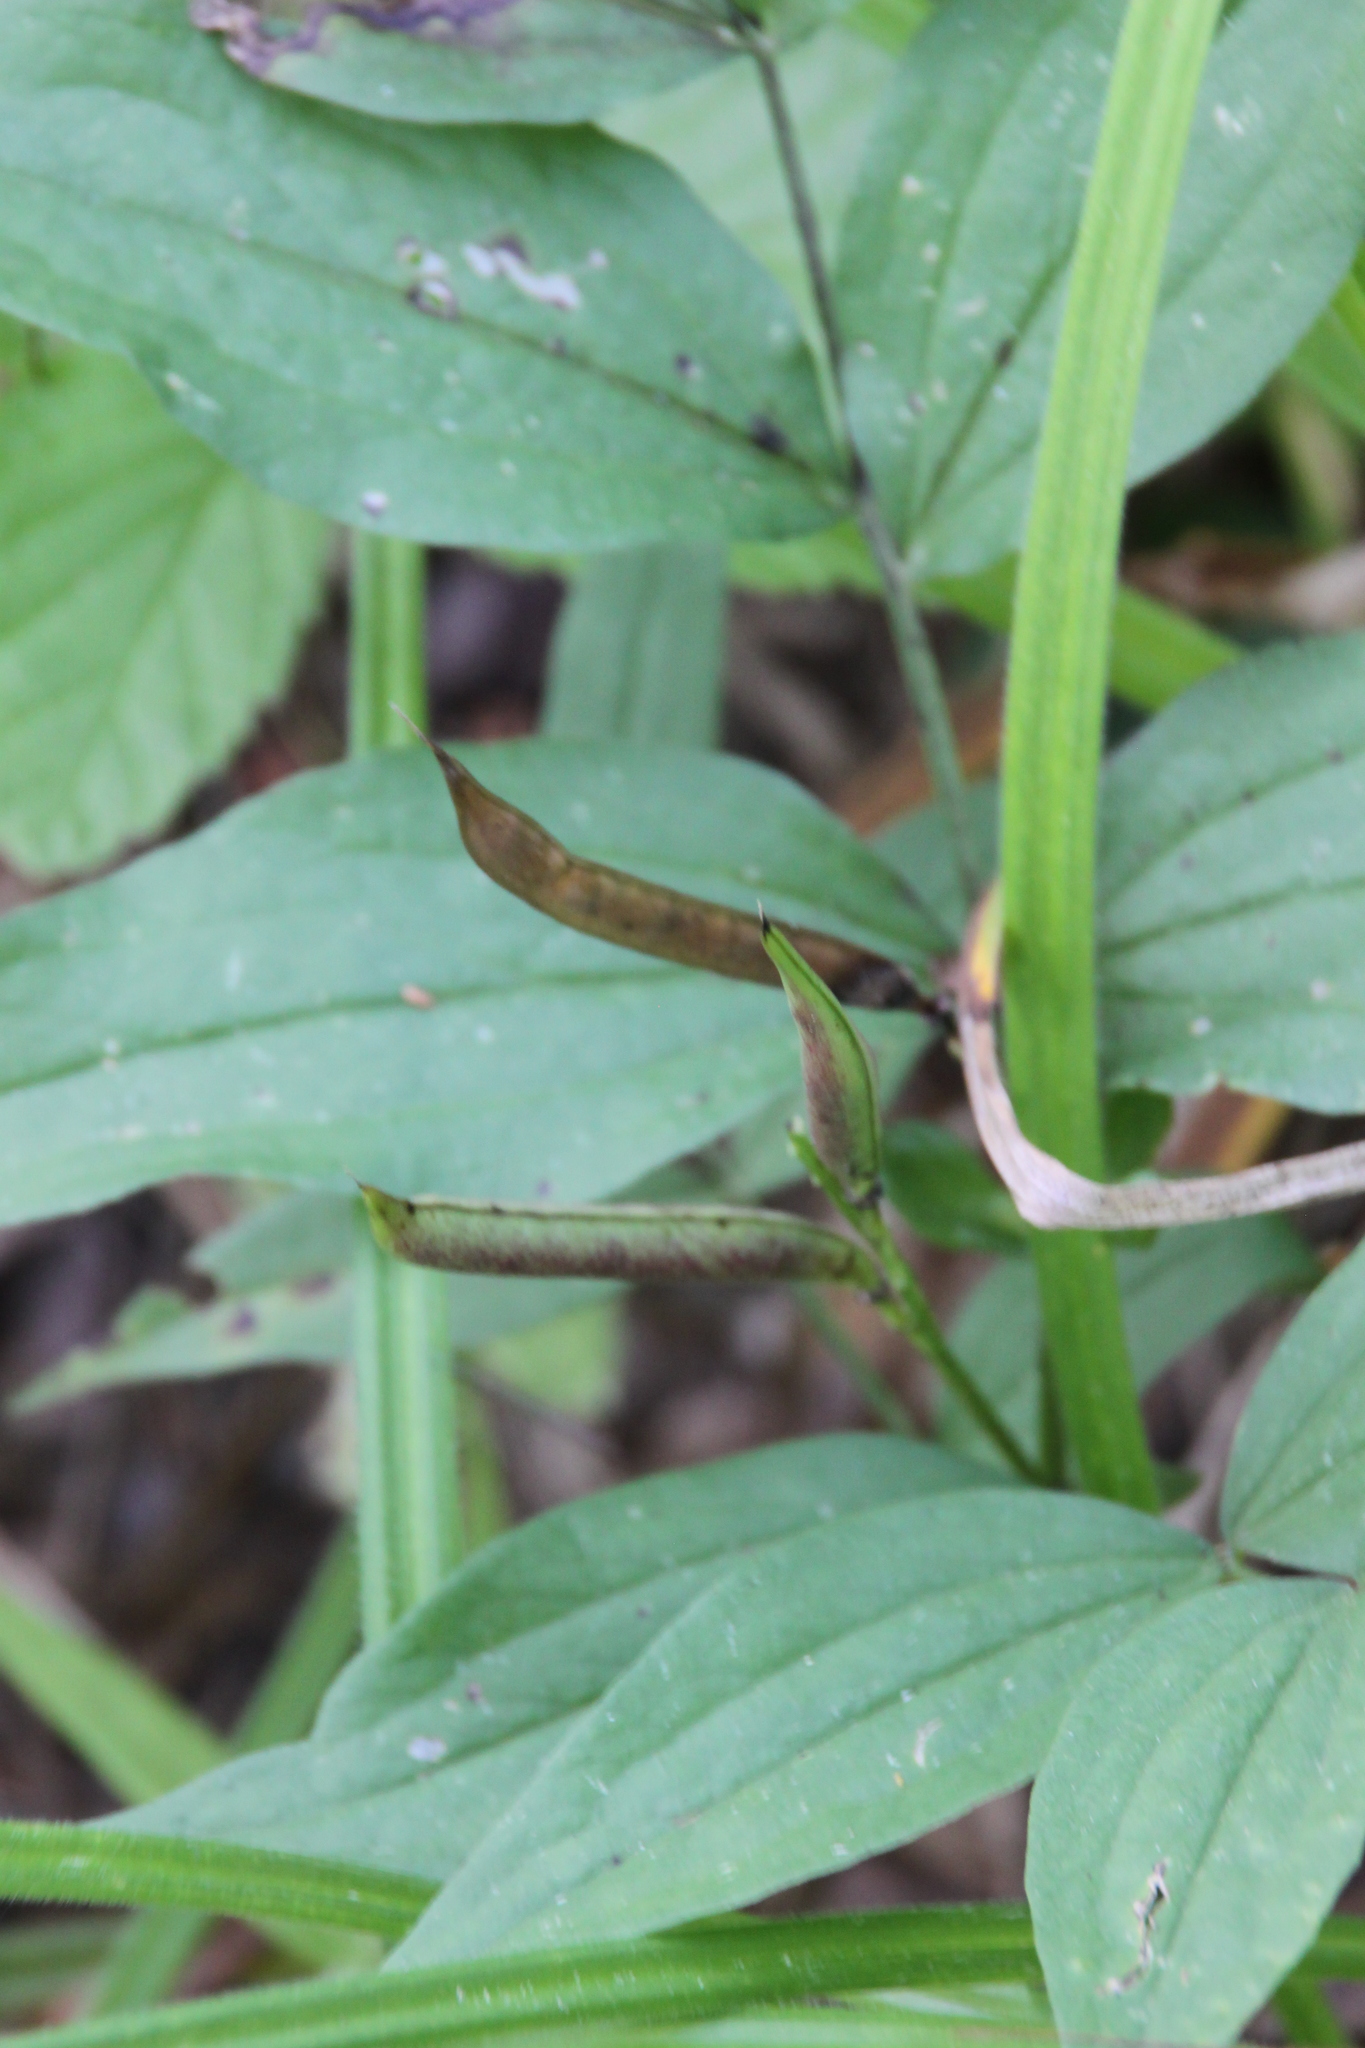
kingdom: Plantae
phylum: Tracheophyta
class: Magnoliopsida
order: Fabales
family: Fabaceae
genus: Lathyrus
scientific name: Lathyrus vernus
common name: Spring pea
